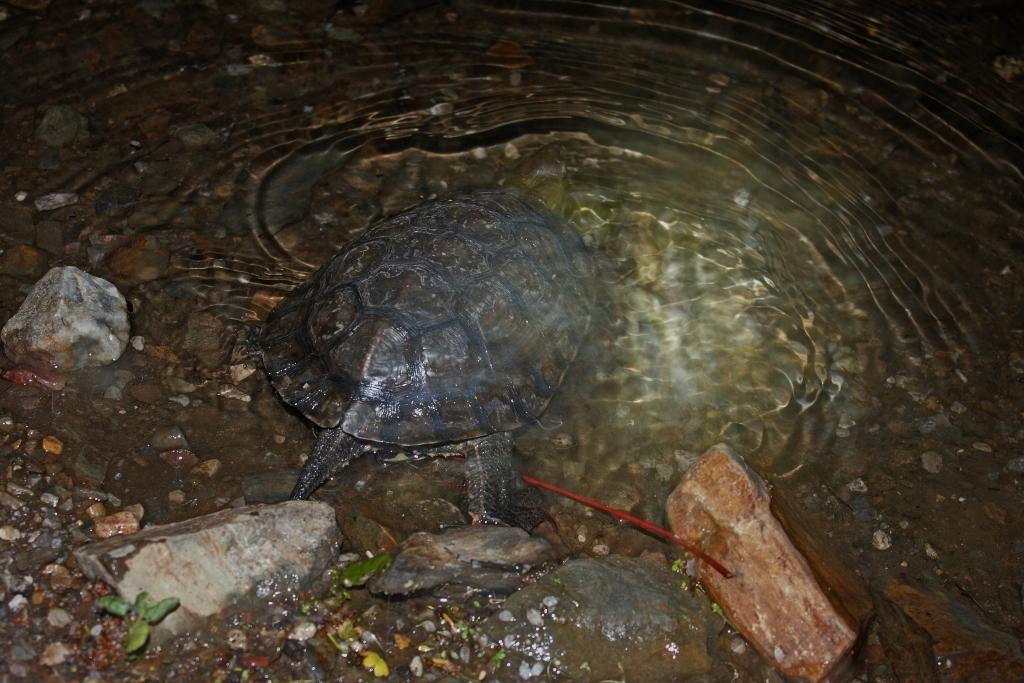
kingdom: Animalia
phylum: Chordata
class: Testudines
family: Geoemydidae
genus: Mauremys
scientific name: Mauremys leprosa
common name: Mediterranean pond turtle
